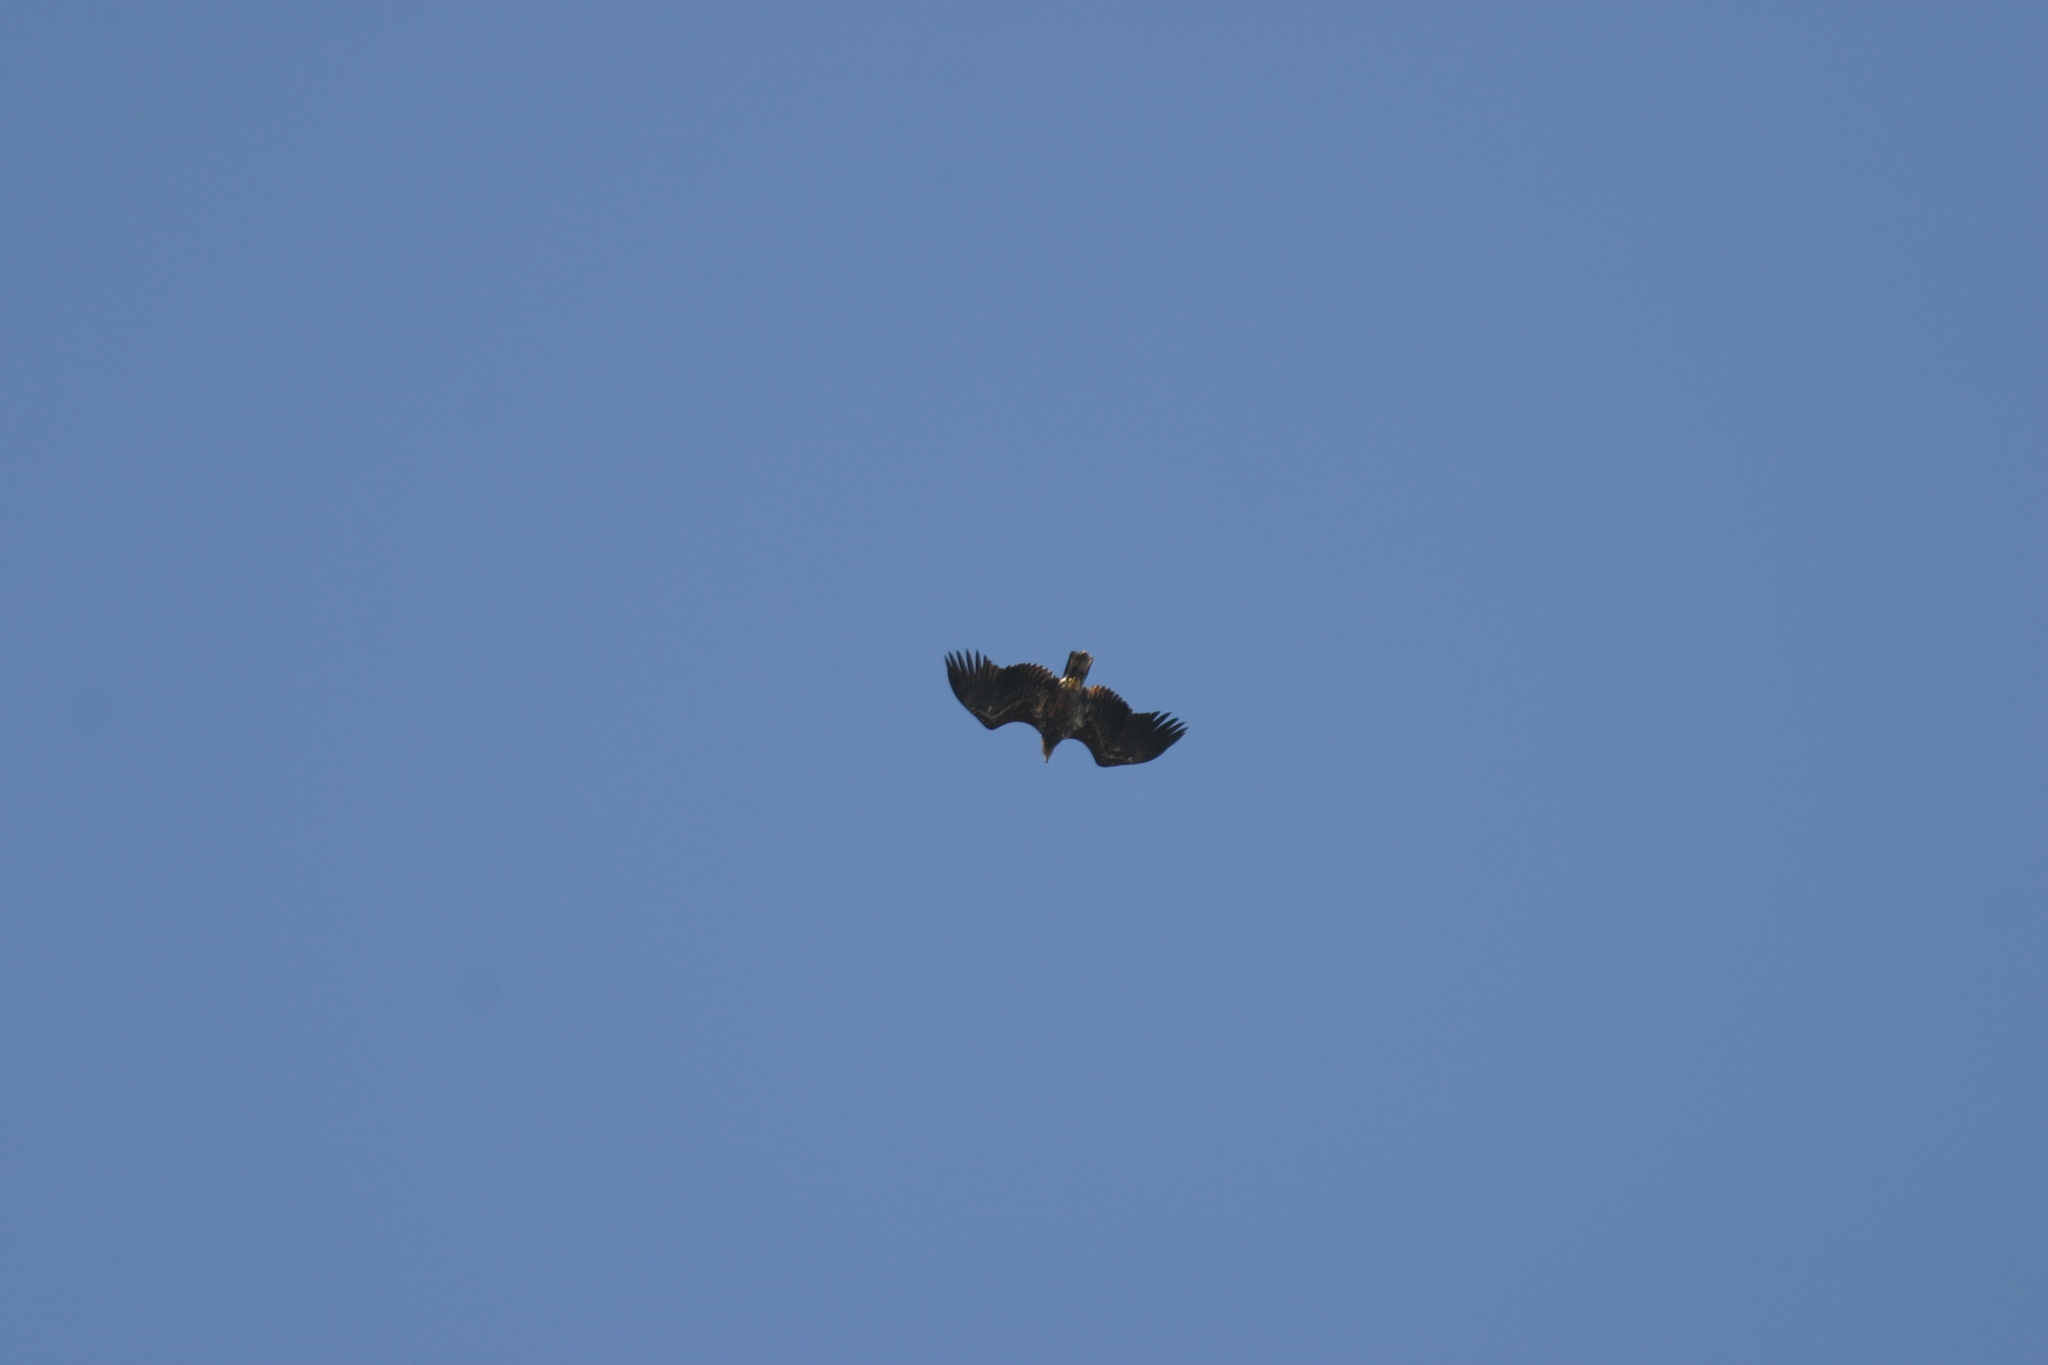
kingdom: Animalia
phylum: Chordata
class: Aves
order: Accipitriformes
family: Accipitridae
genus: Haliaeetus
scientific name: Haliaeetus albicilla
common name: White-tailed eagle
